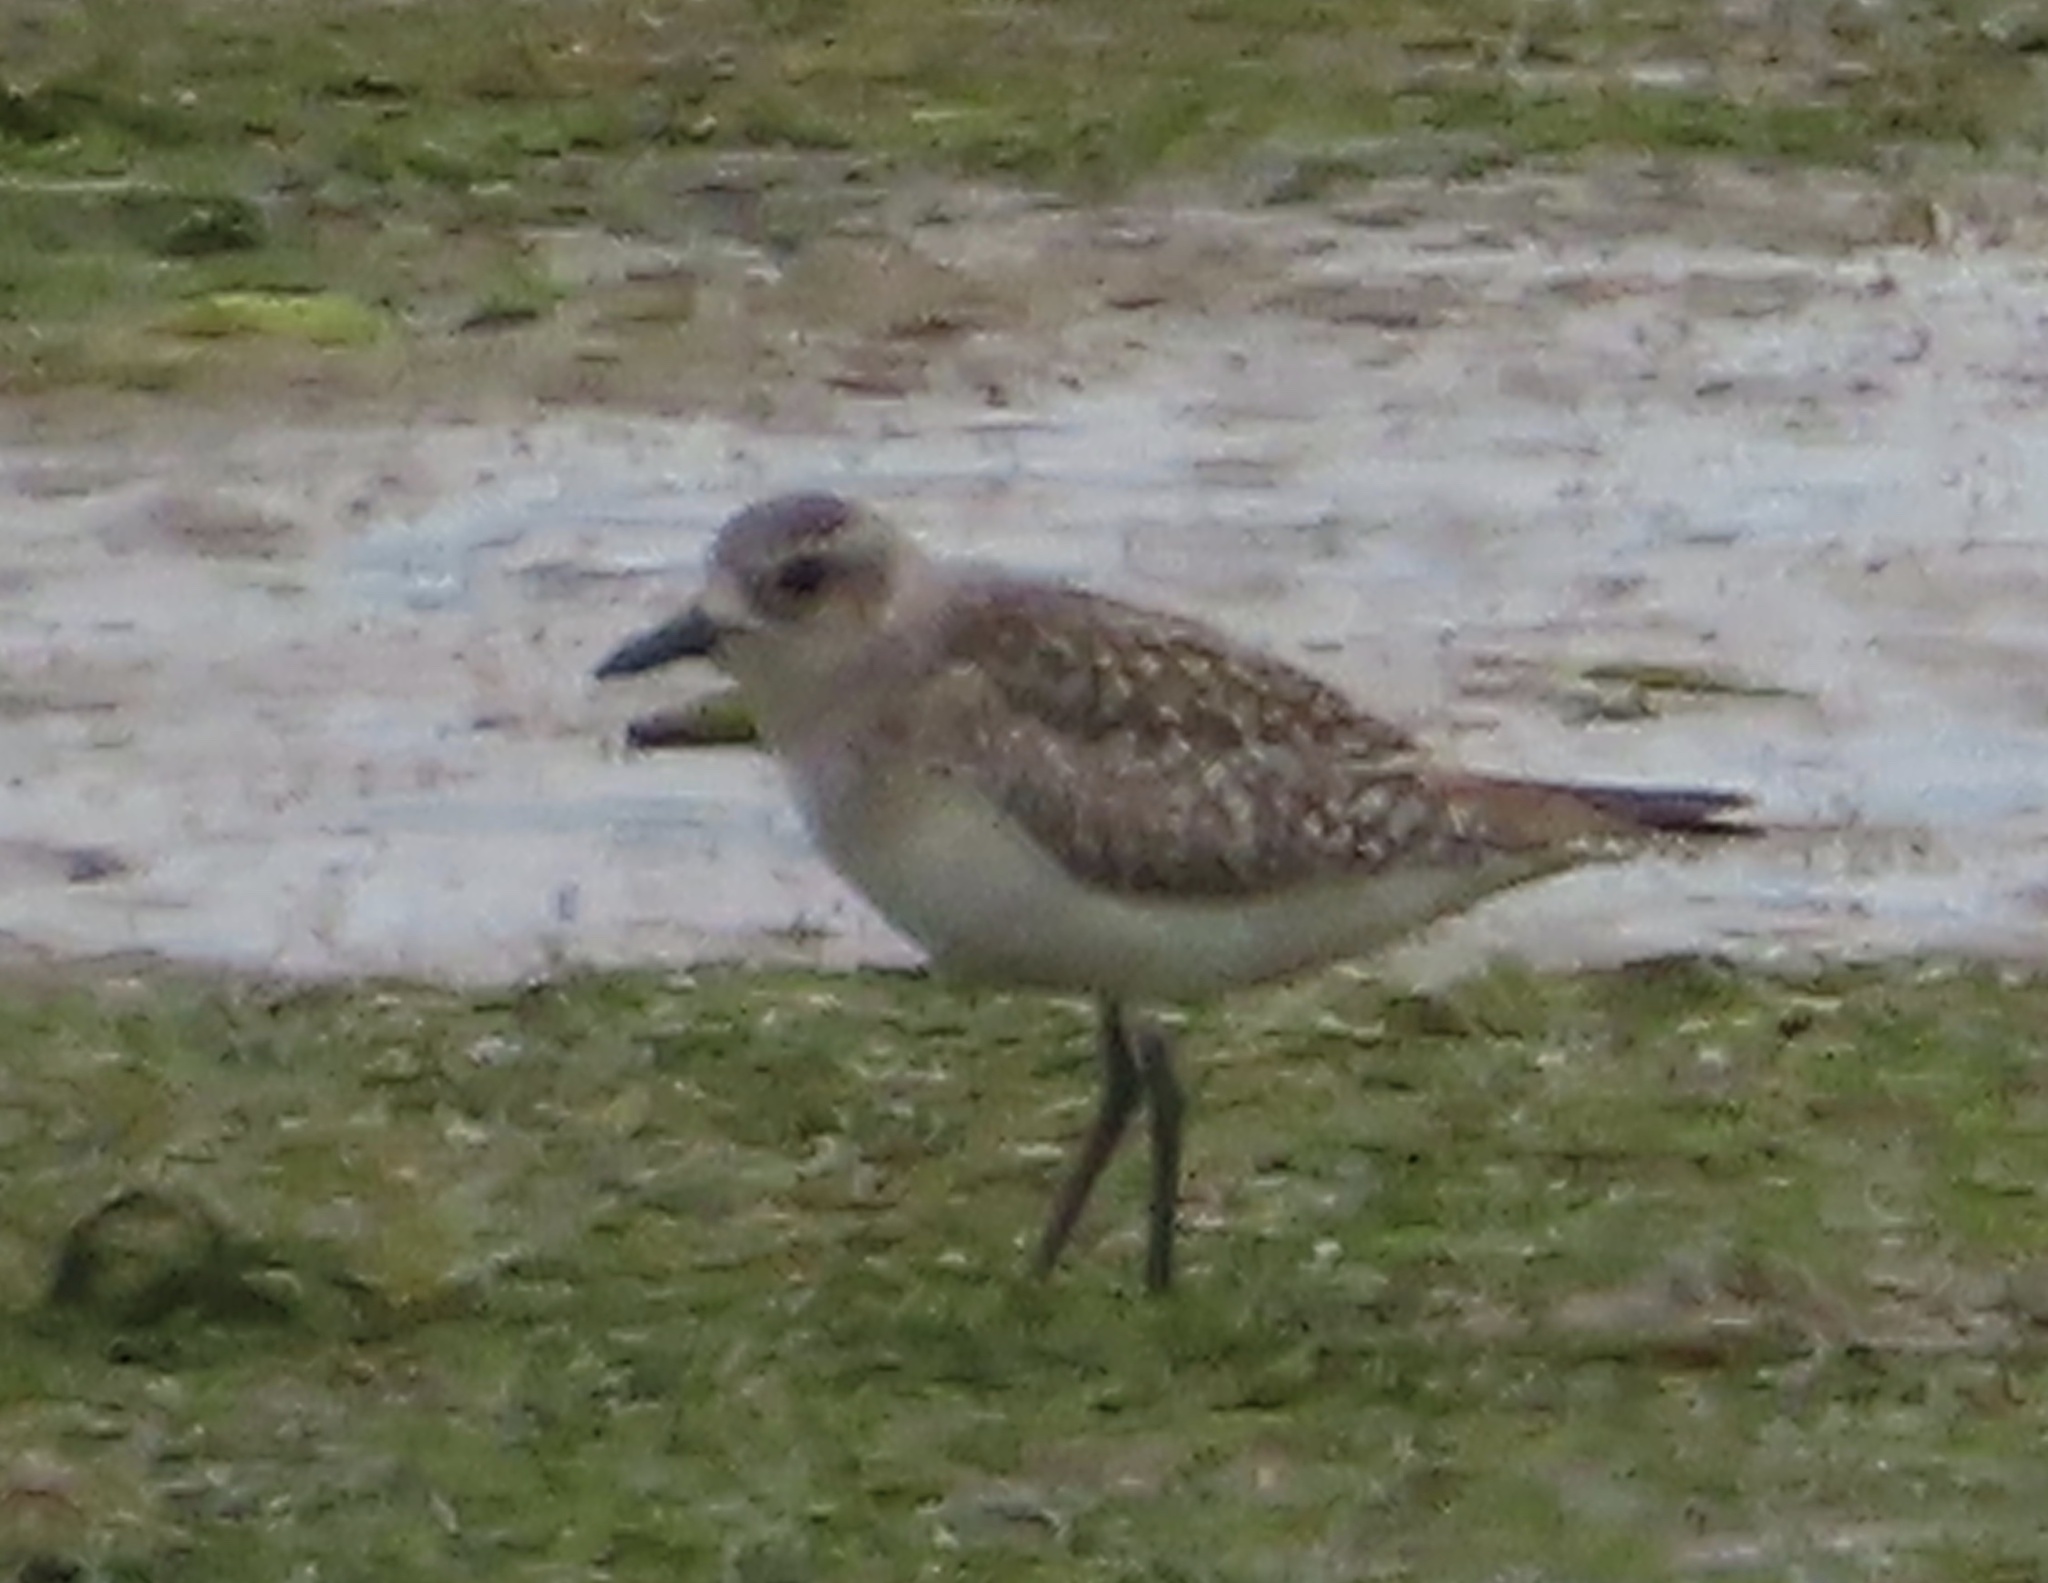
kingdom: Animalia
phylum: Chordata
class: Aves
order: Charadriiformes
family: Charadriidae
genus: Pluvialis
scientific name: Pluvialis squatarola
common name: Grey plover
